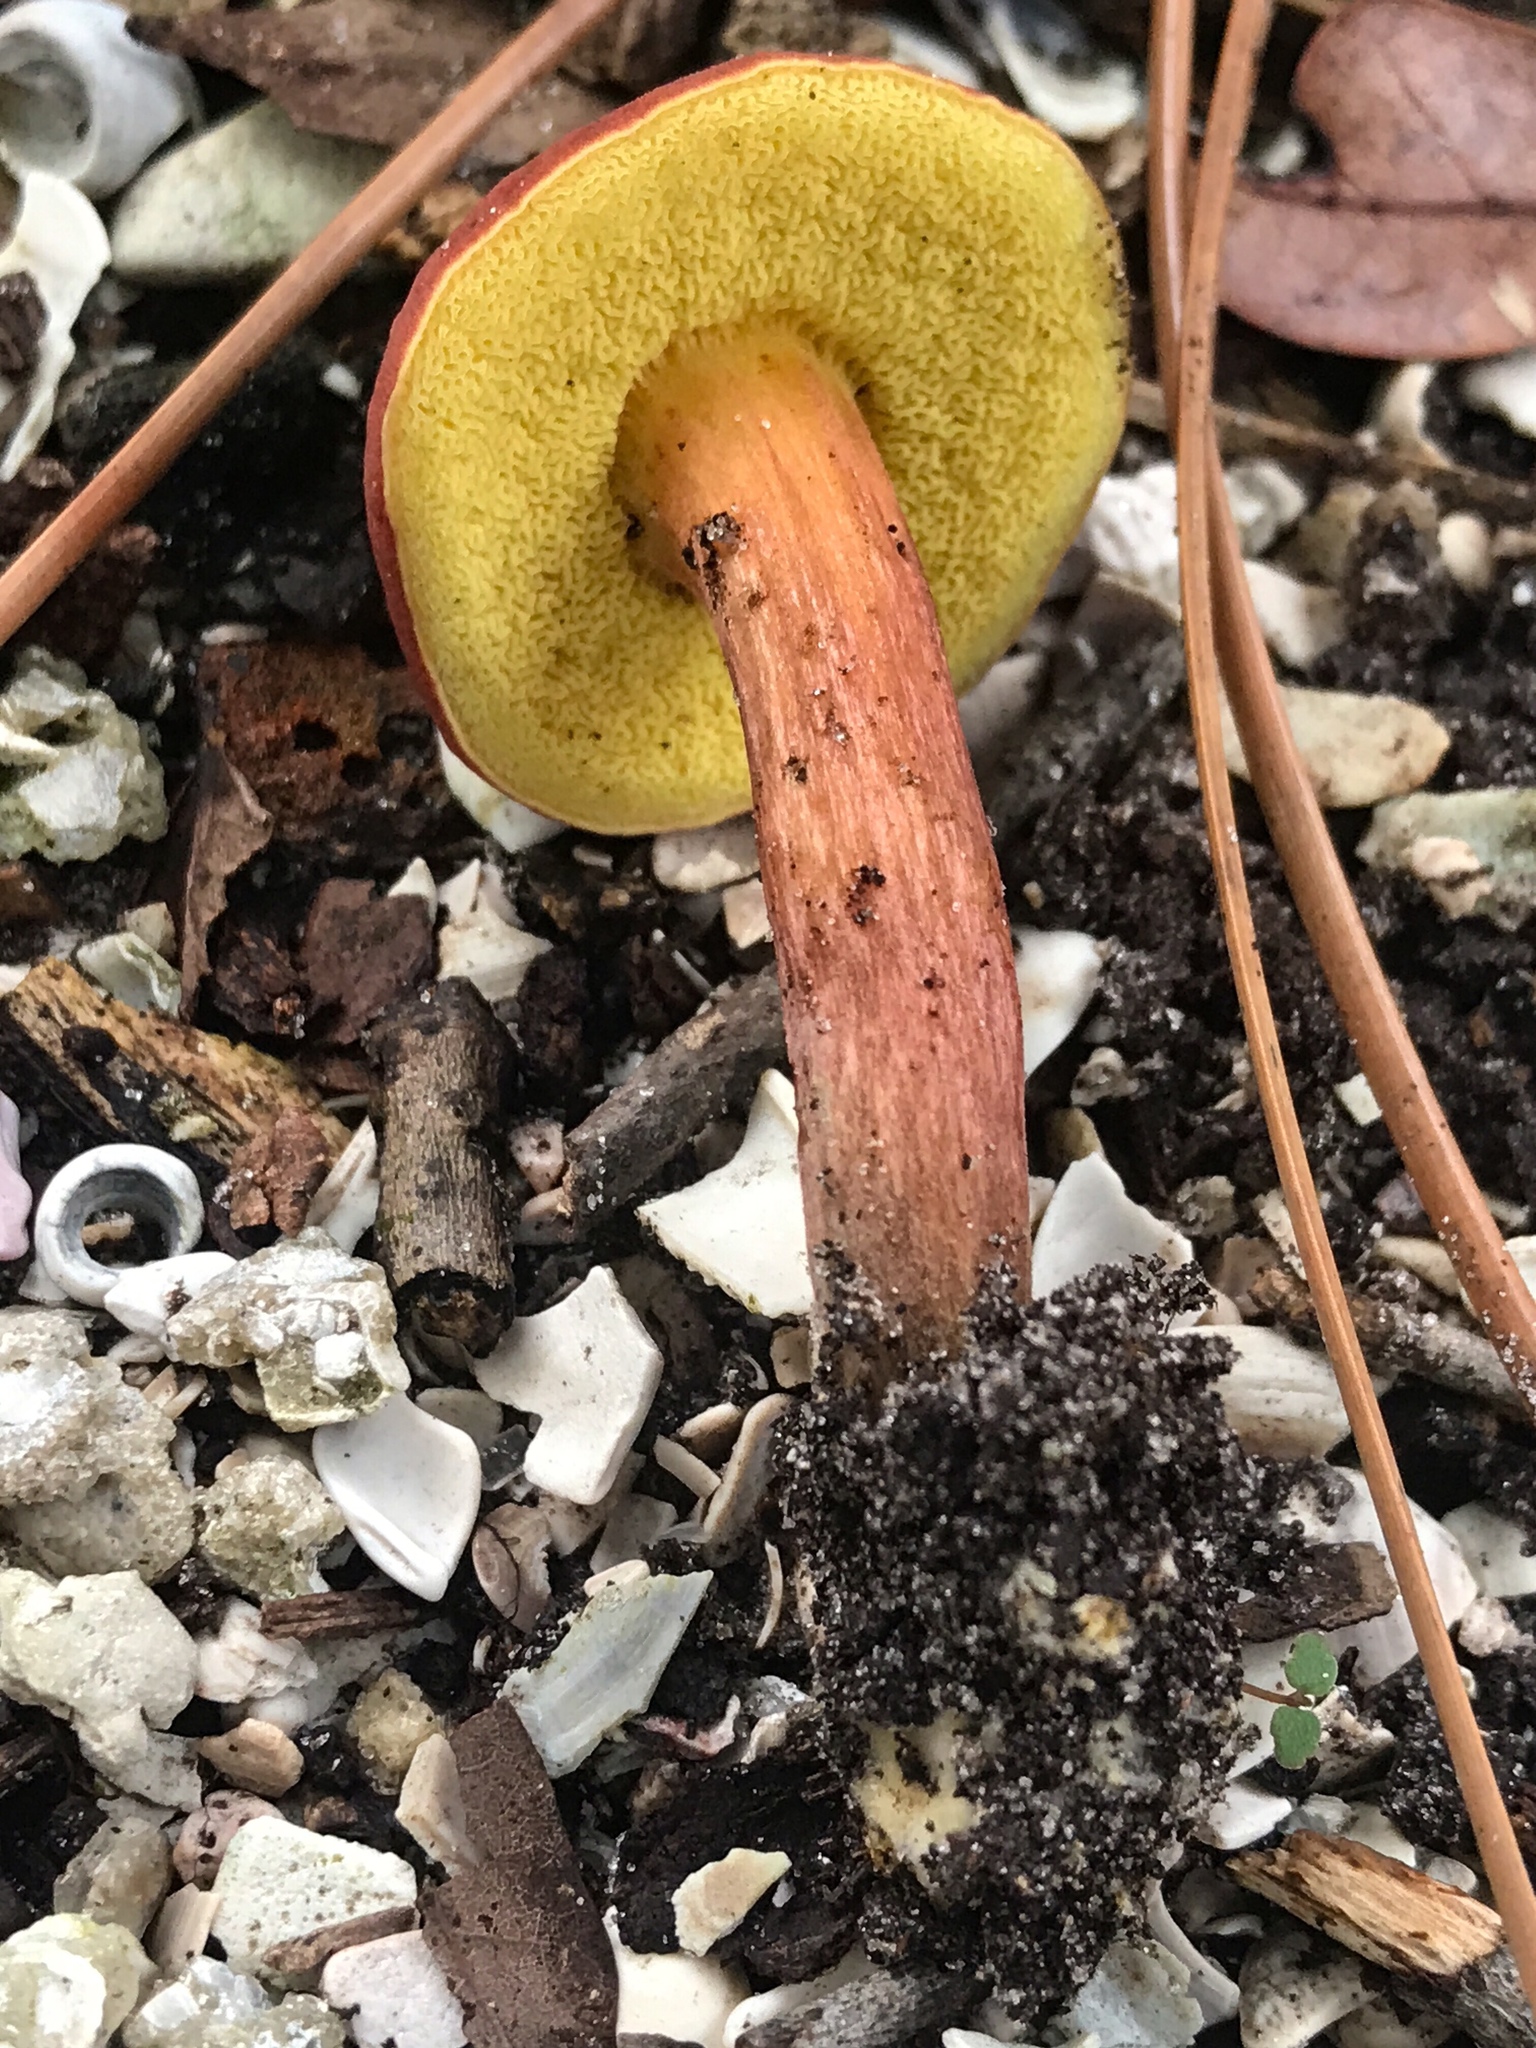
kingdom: Fungi
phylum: Basidiomycota
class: Agaricomycetes
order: Boletales
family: Boletaceae
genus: Imleria
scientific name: Imleria floridana
